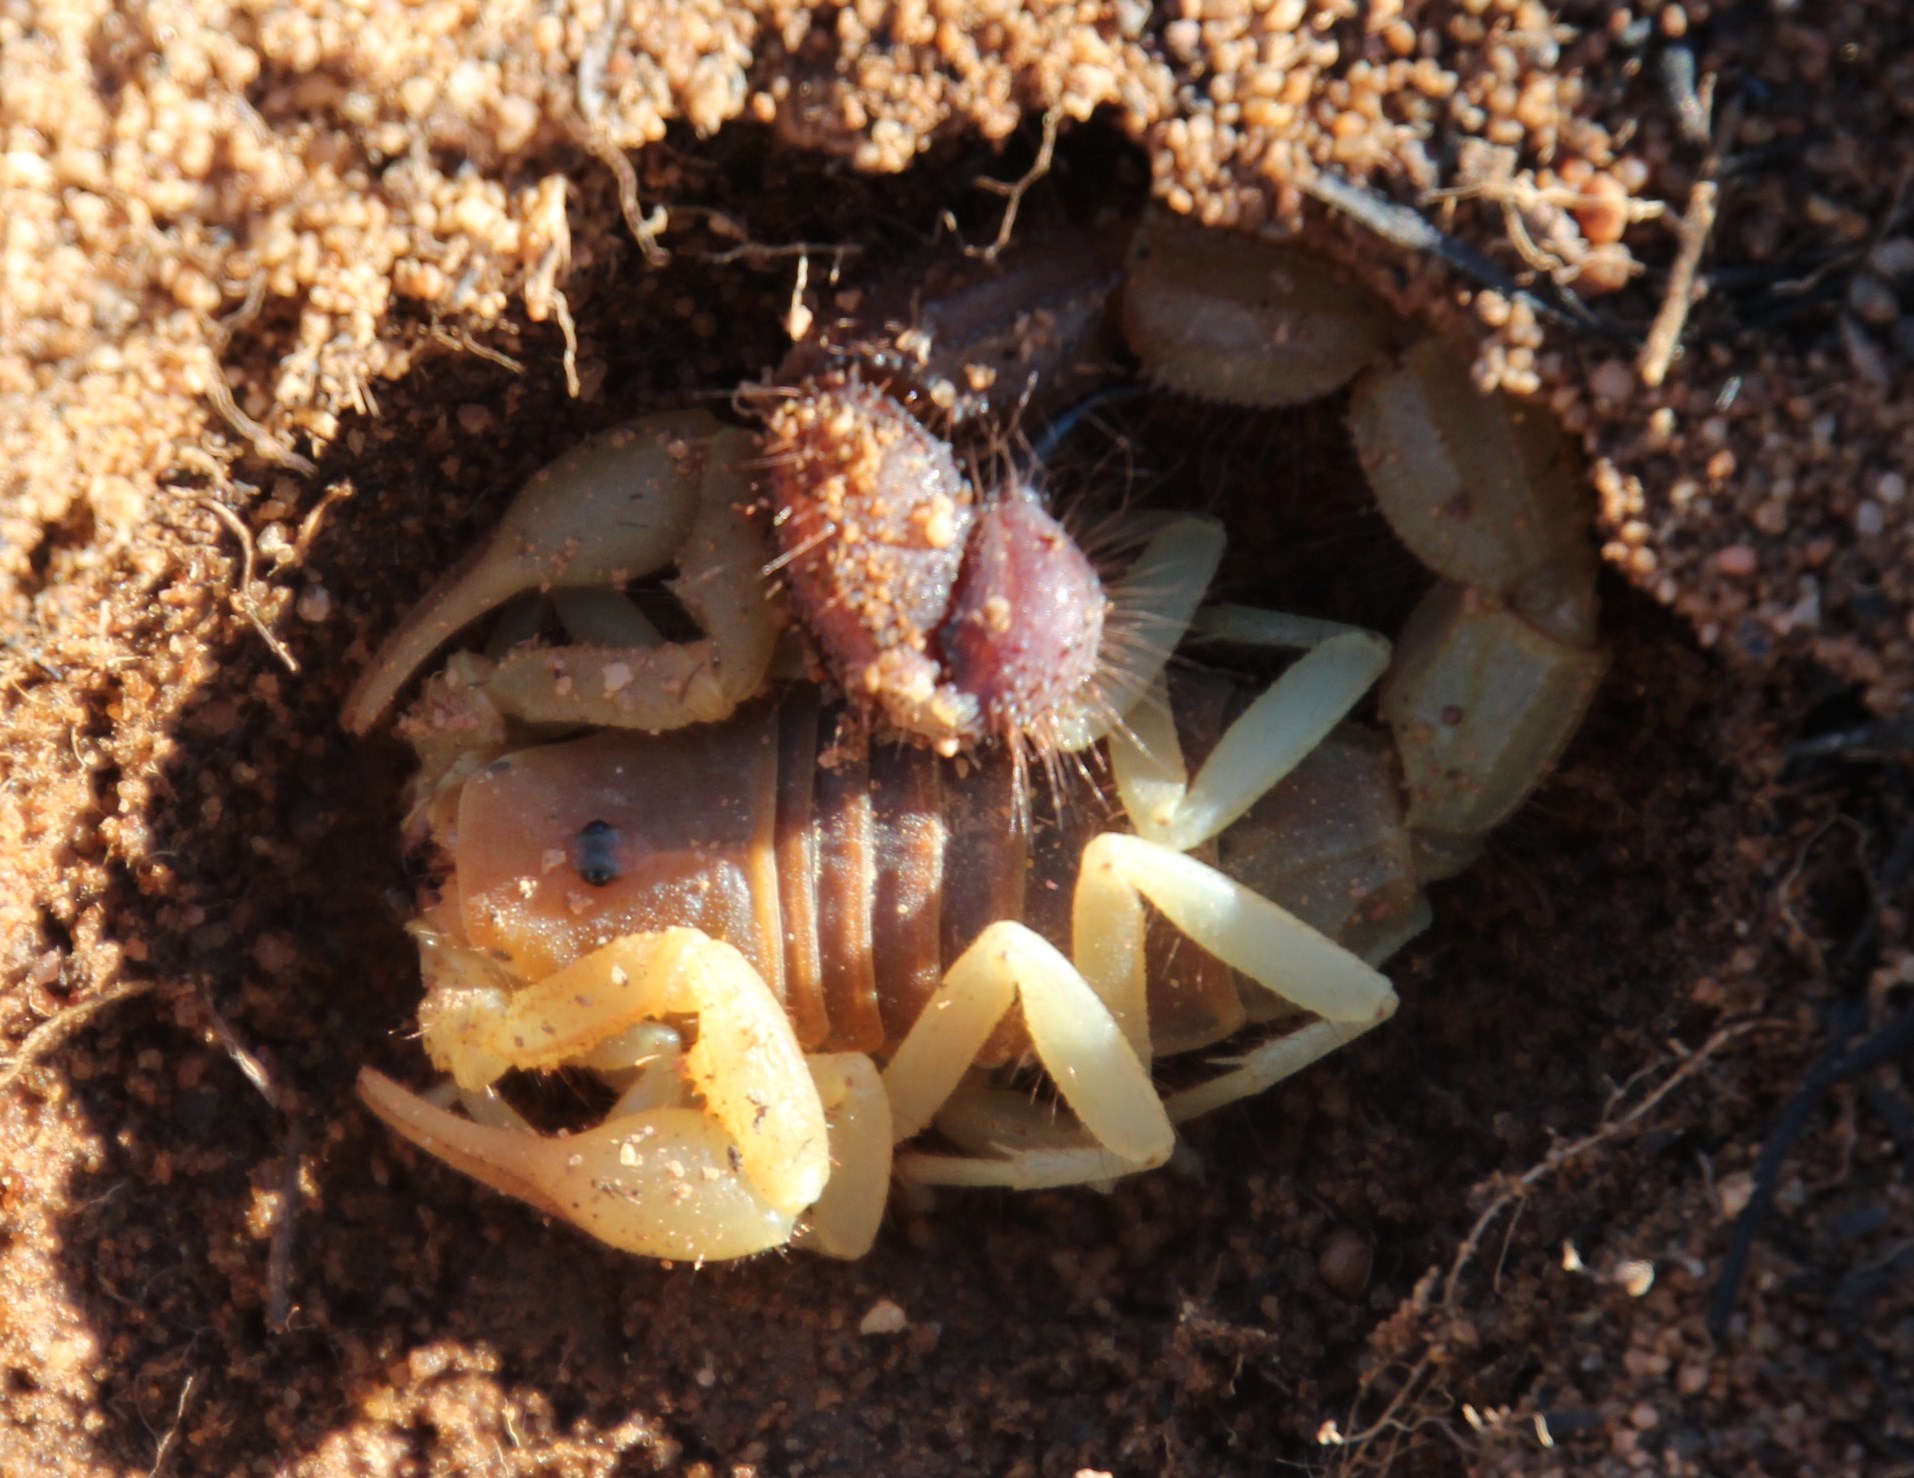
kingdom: Animalia
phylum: Arthropoda
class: Arachnida
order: Scorpiones
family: Buthidae
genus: Parabuthus
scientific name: Parabuthus capensis
